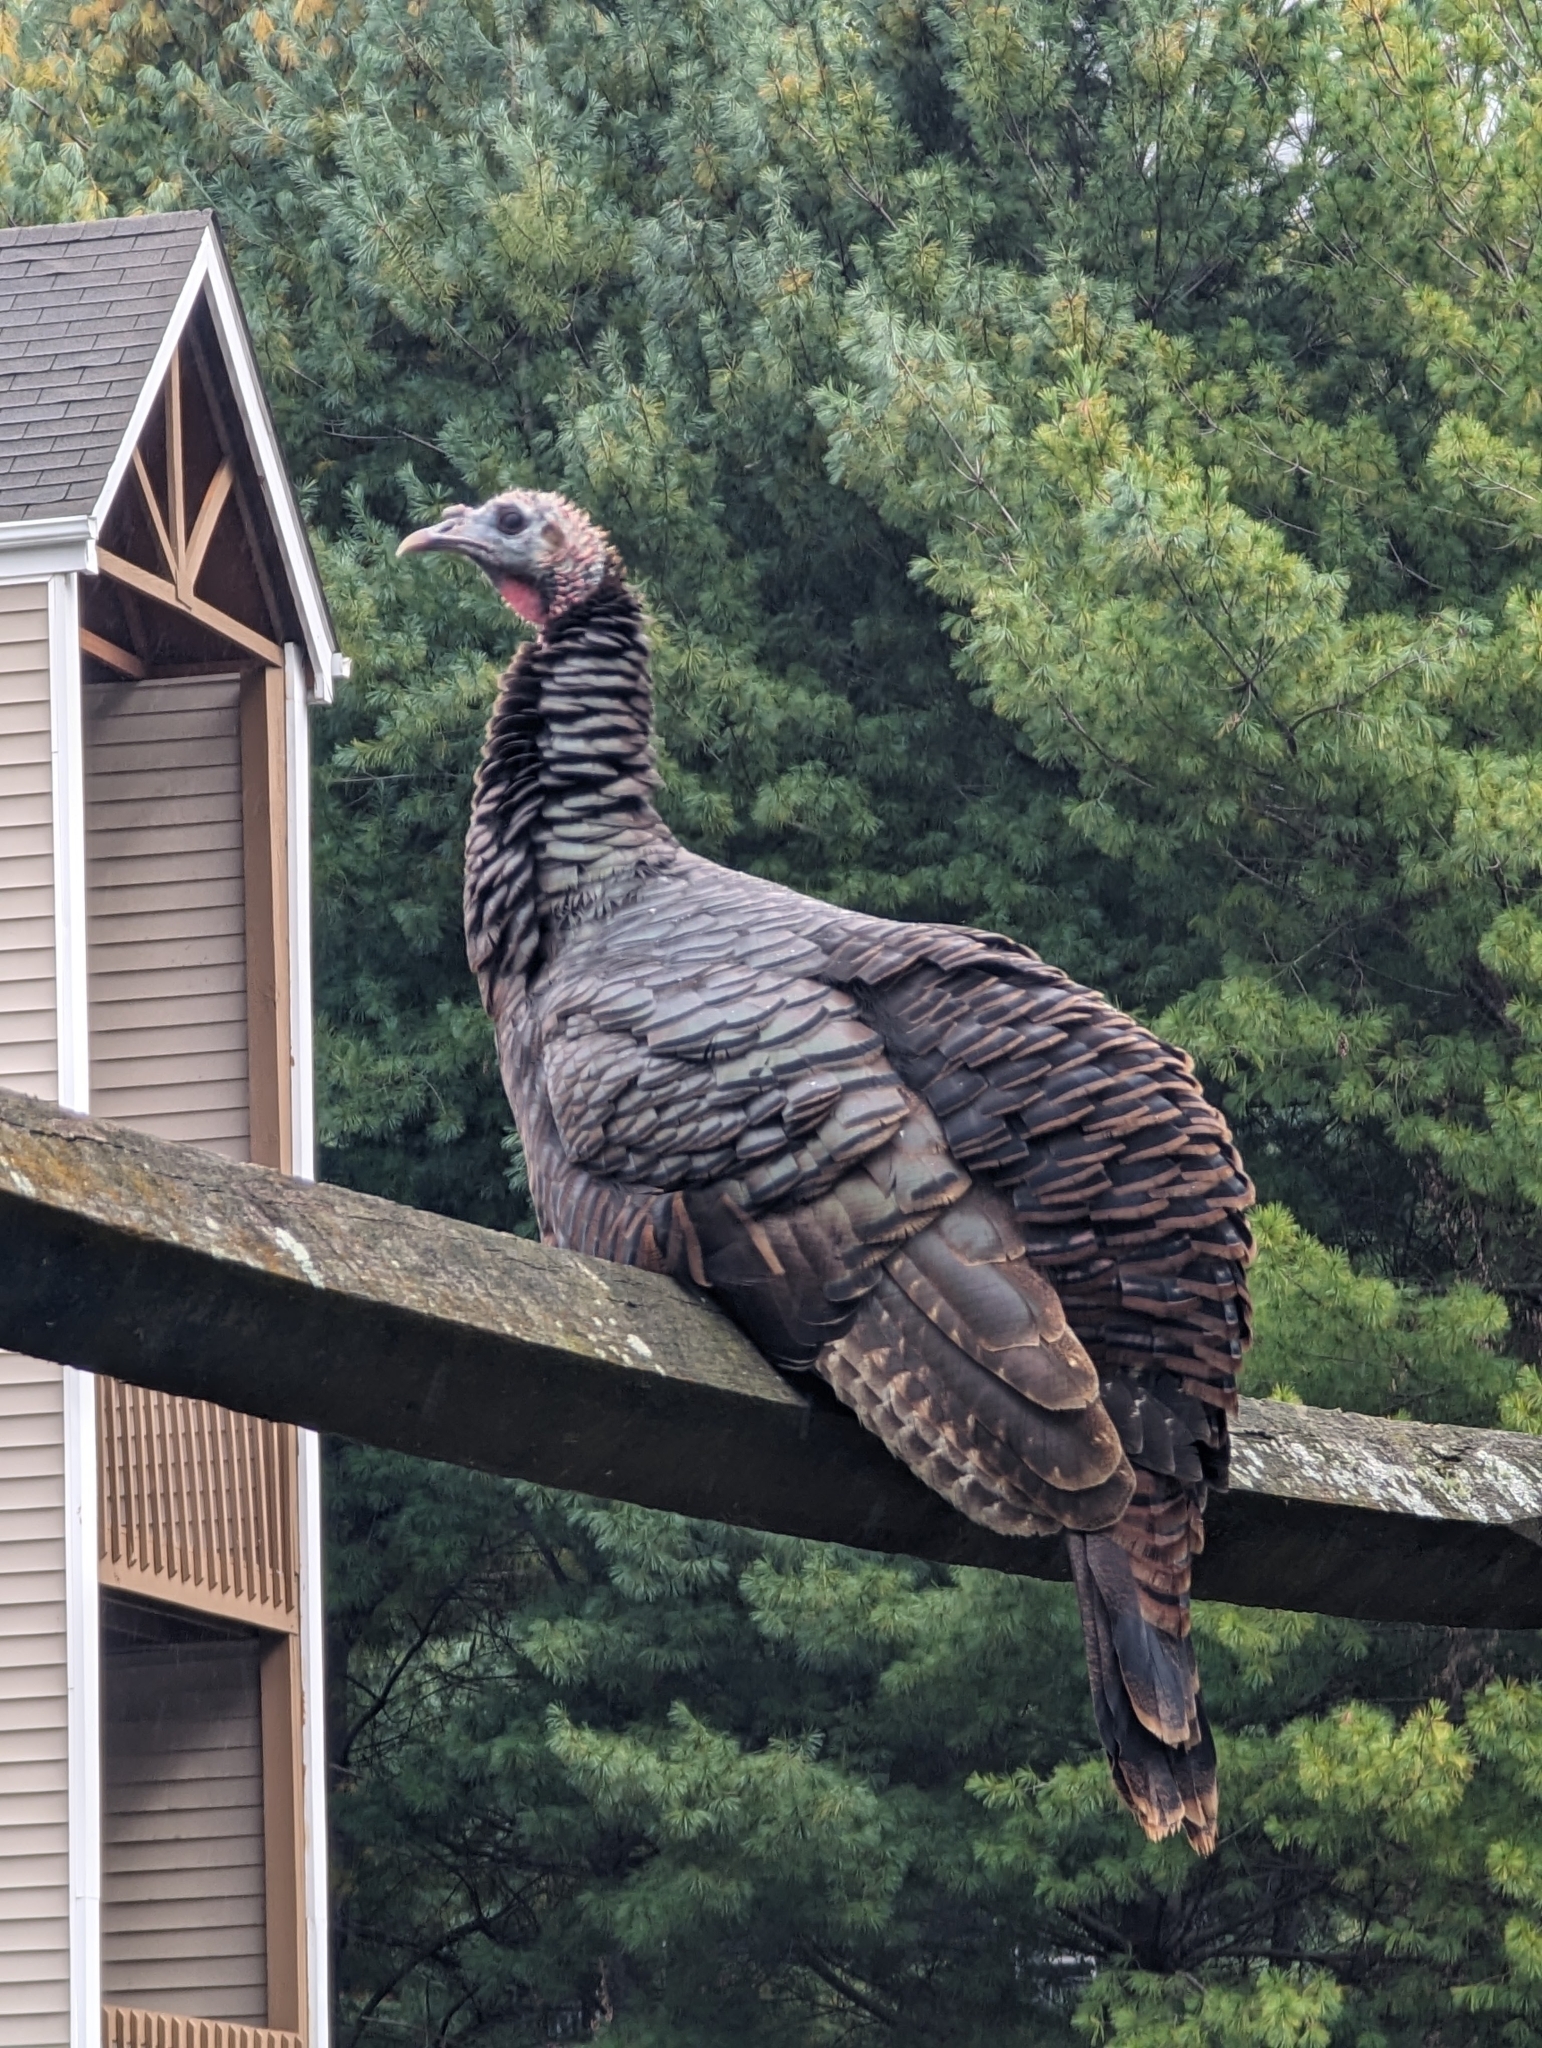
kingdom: Animalia
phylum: Chordata
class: Aves
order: Galliformes
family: Phasianidae
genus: Meleagris
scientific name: Meleagris gallopavo
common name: Wild turkey
